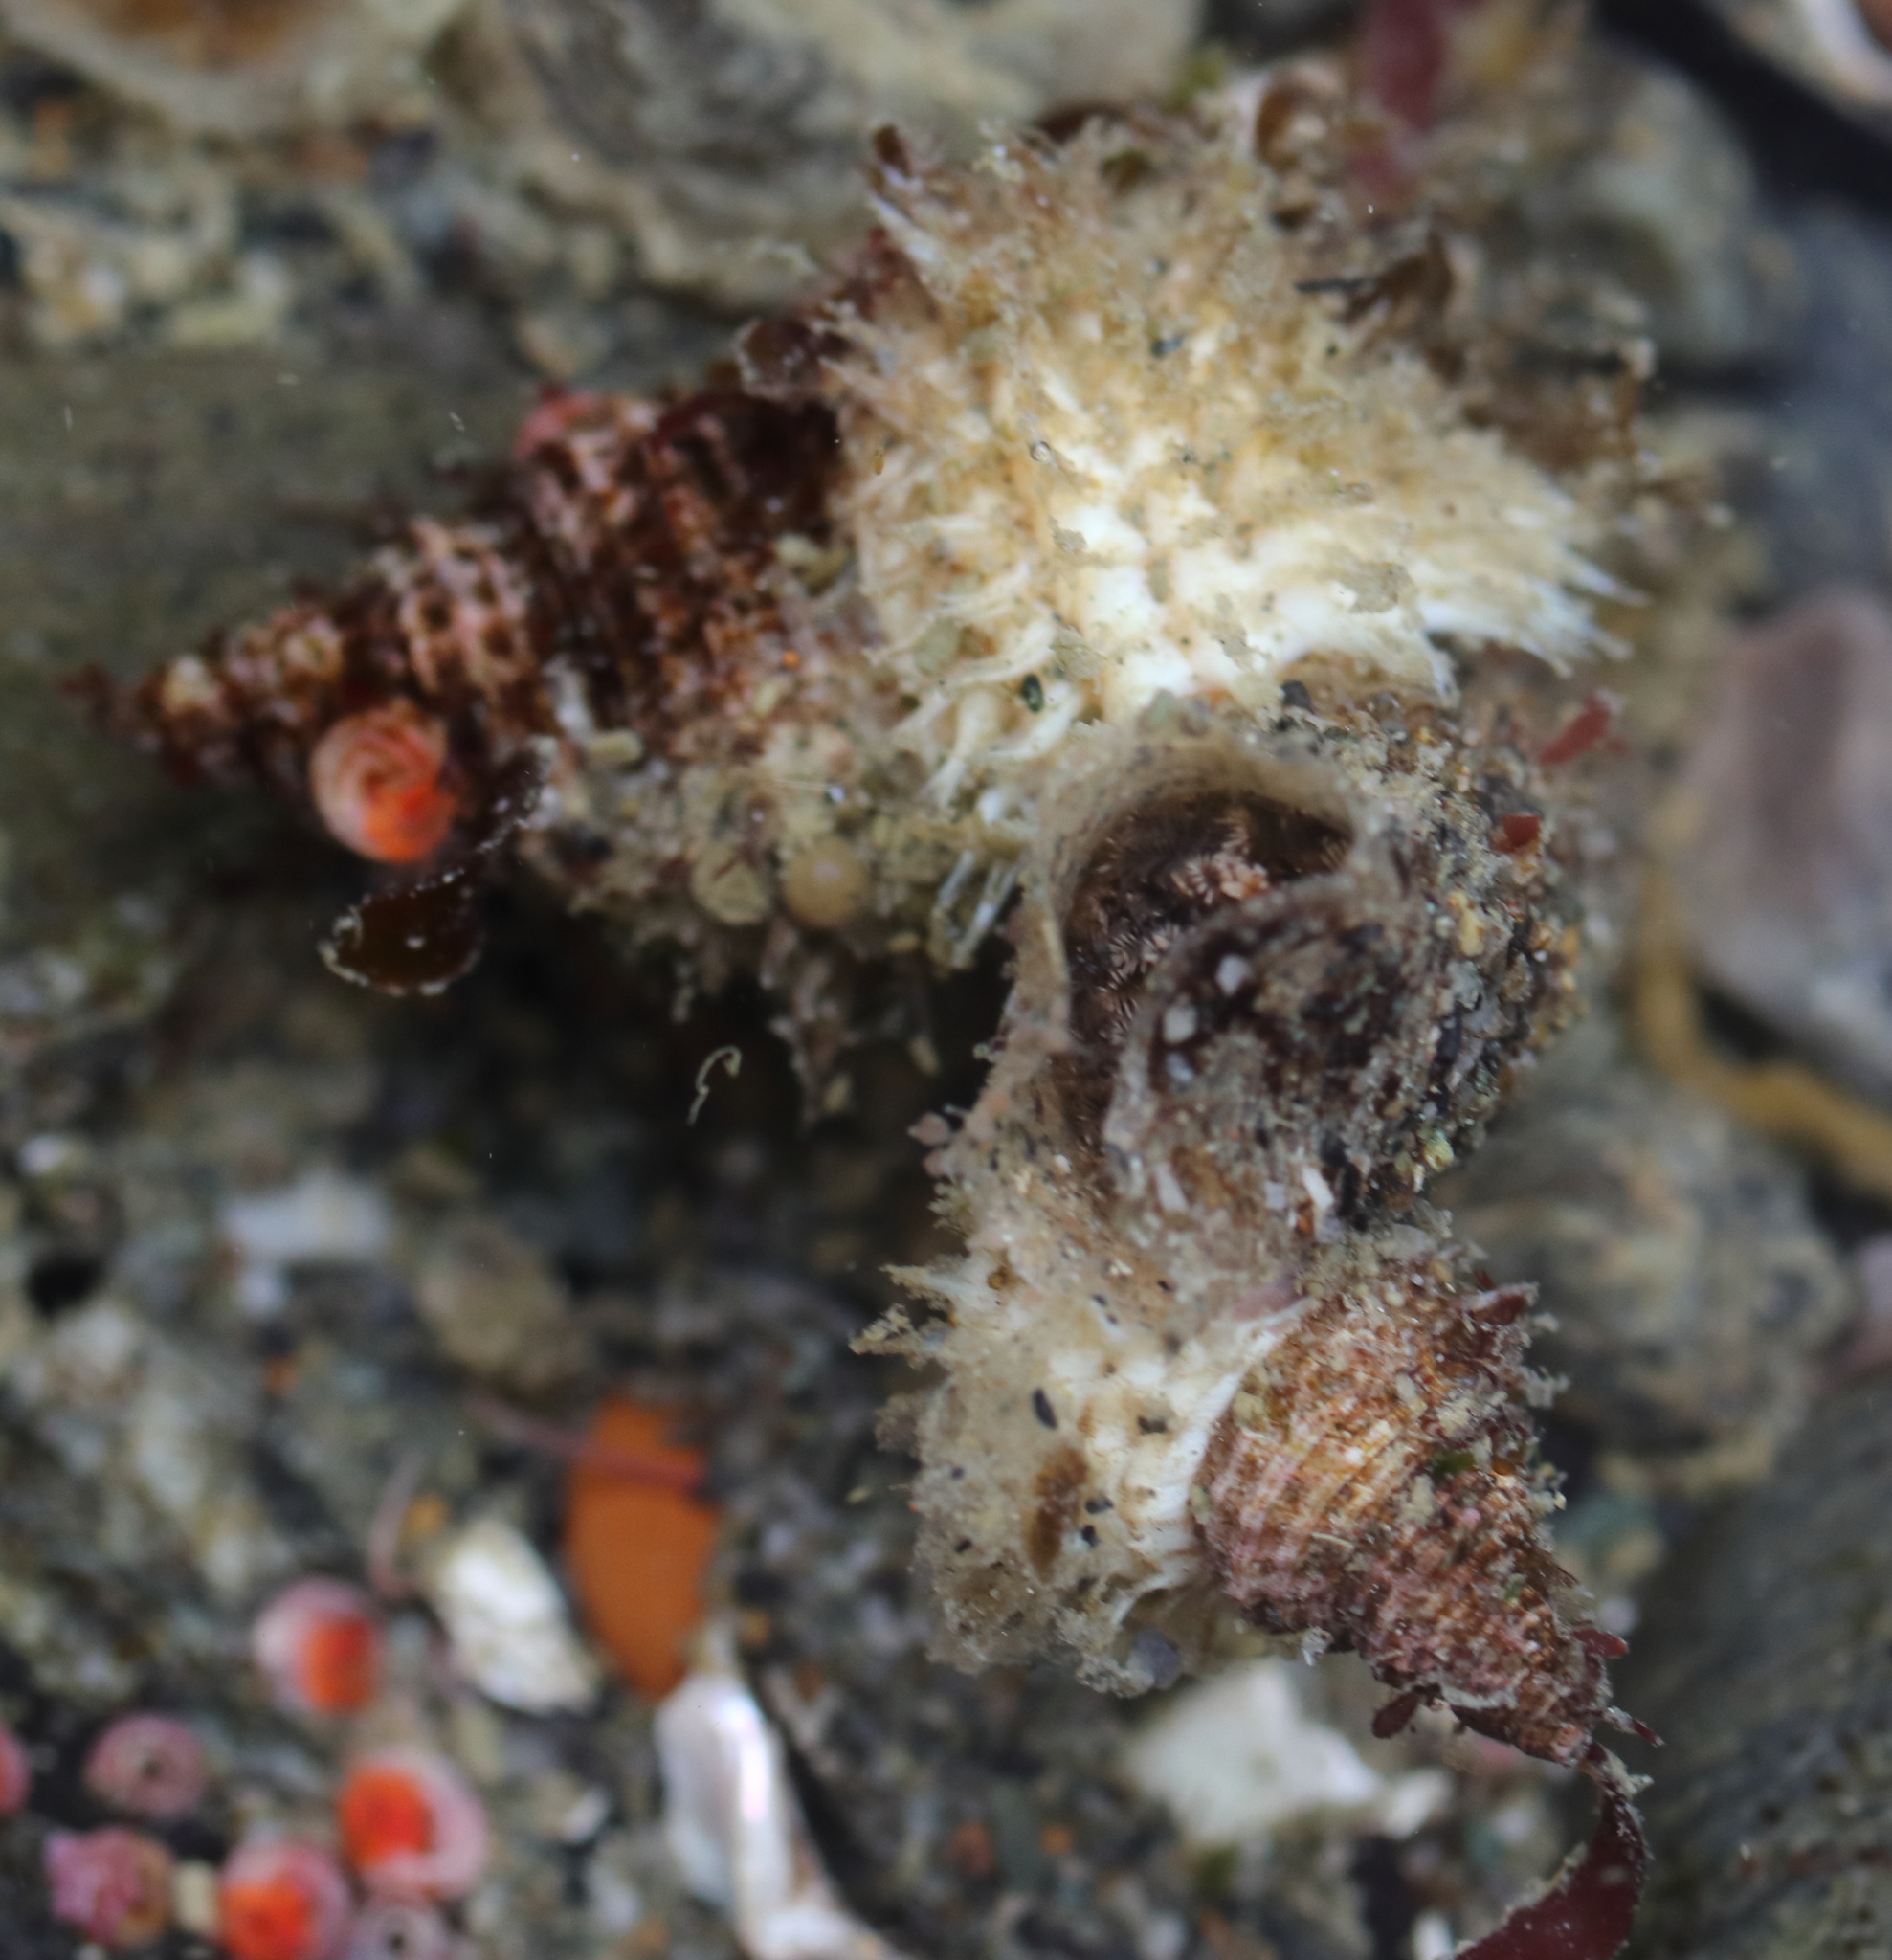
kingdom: Animalia
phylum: Mollusca
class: Gastropoda
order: Littorinimorpha
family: Capulidae
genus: Trichotropis
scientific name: Trichotropis cancellata
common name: Cancellate hairysnail
